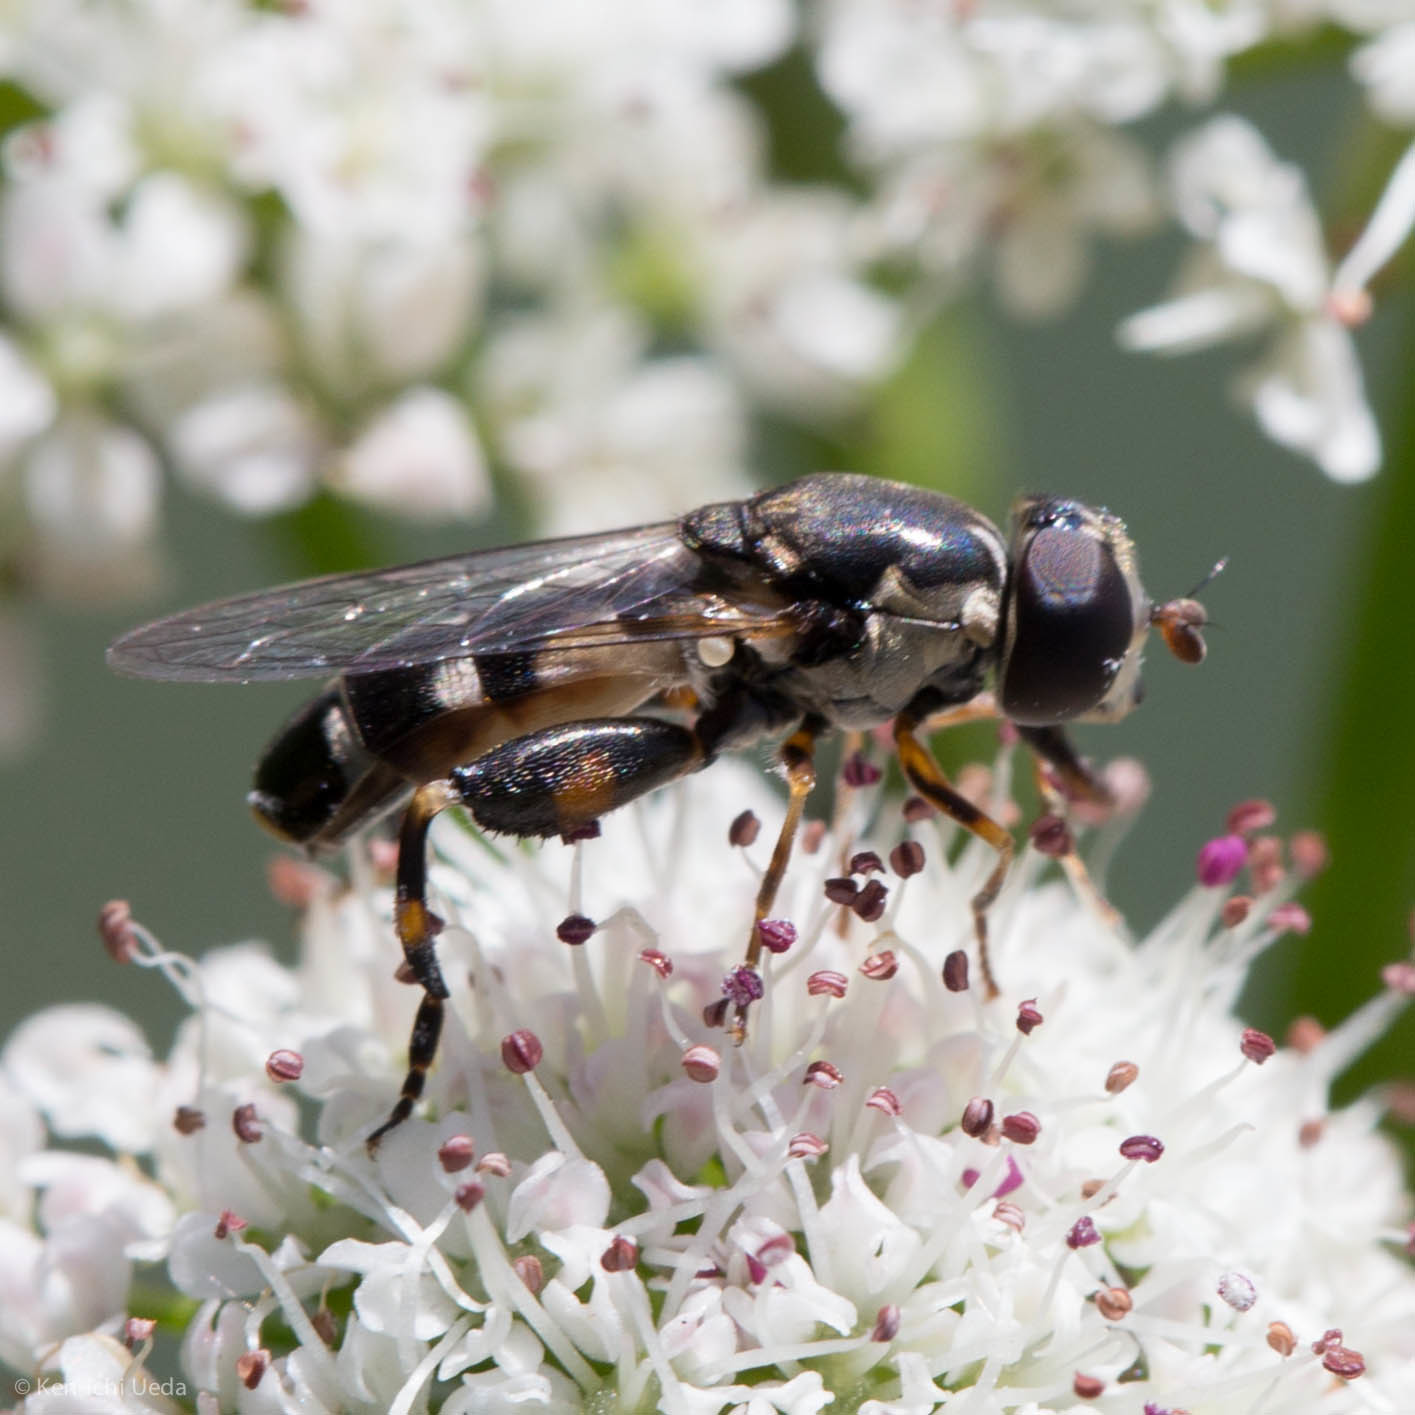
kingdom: Animalia
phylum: Arthropoda
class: Insecta
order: Diptera
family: Syrphidae
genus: Syritta
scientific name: Syritta pipiens
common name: Hover fly
